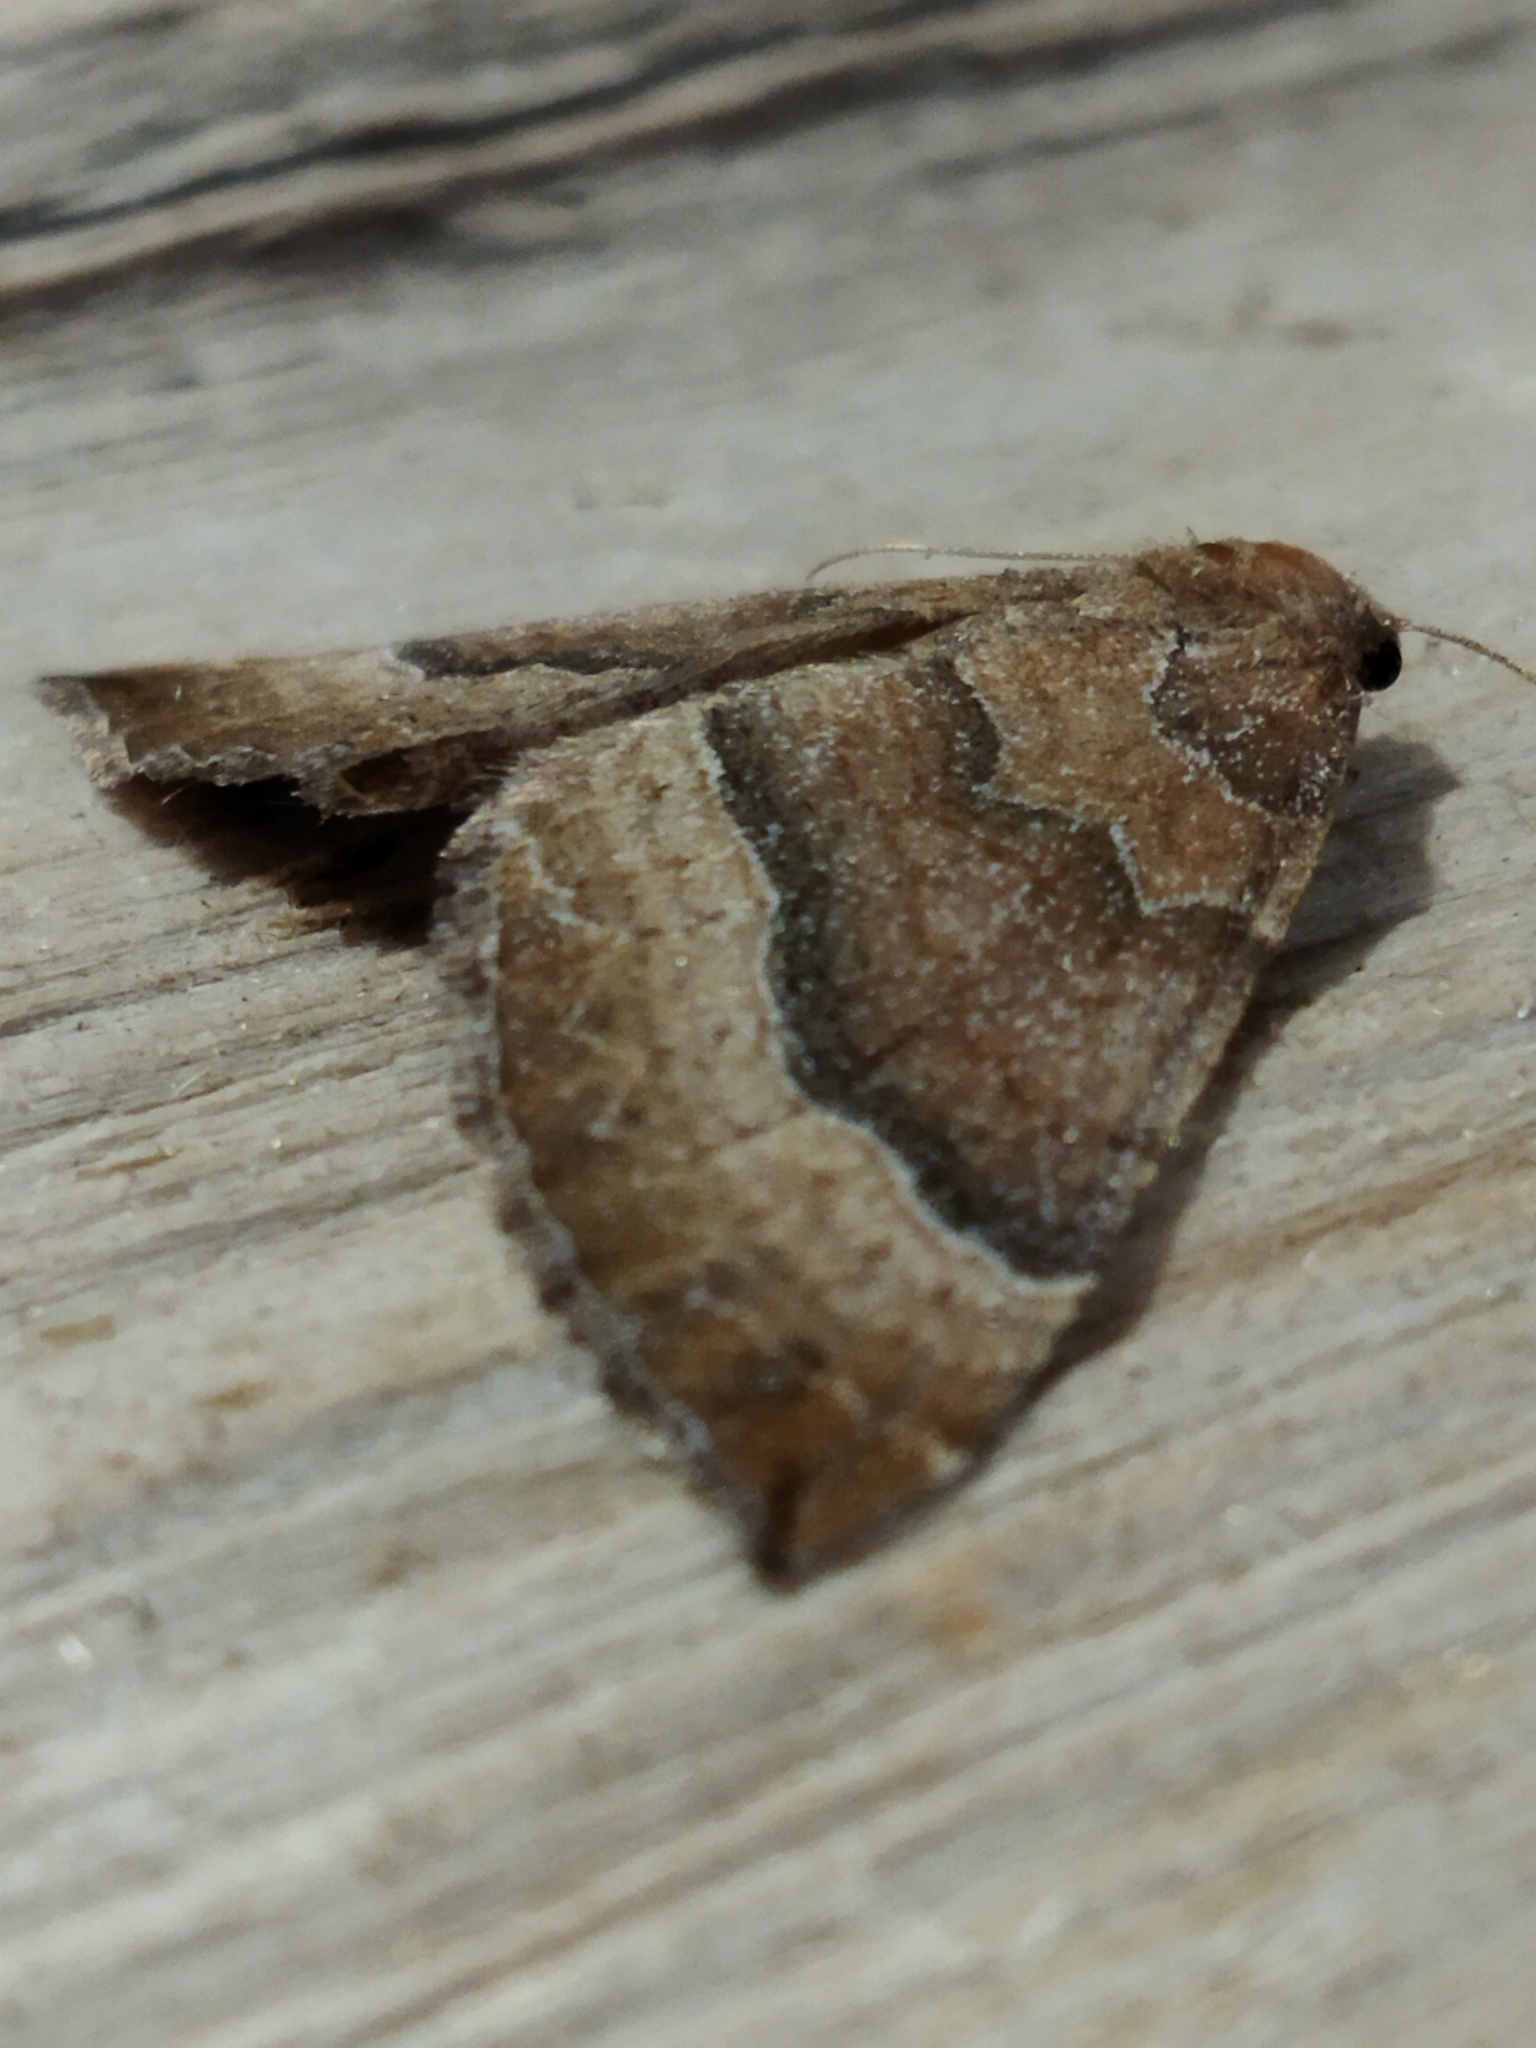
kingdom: Animalia
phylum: Arthropoda
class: Insecta
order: Lepidoptera
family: Geometridae
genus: Larentia
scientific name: Larentia clavaria
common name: Mallow
